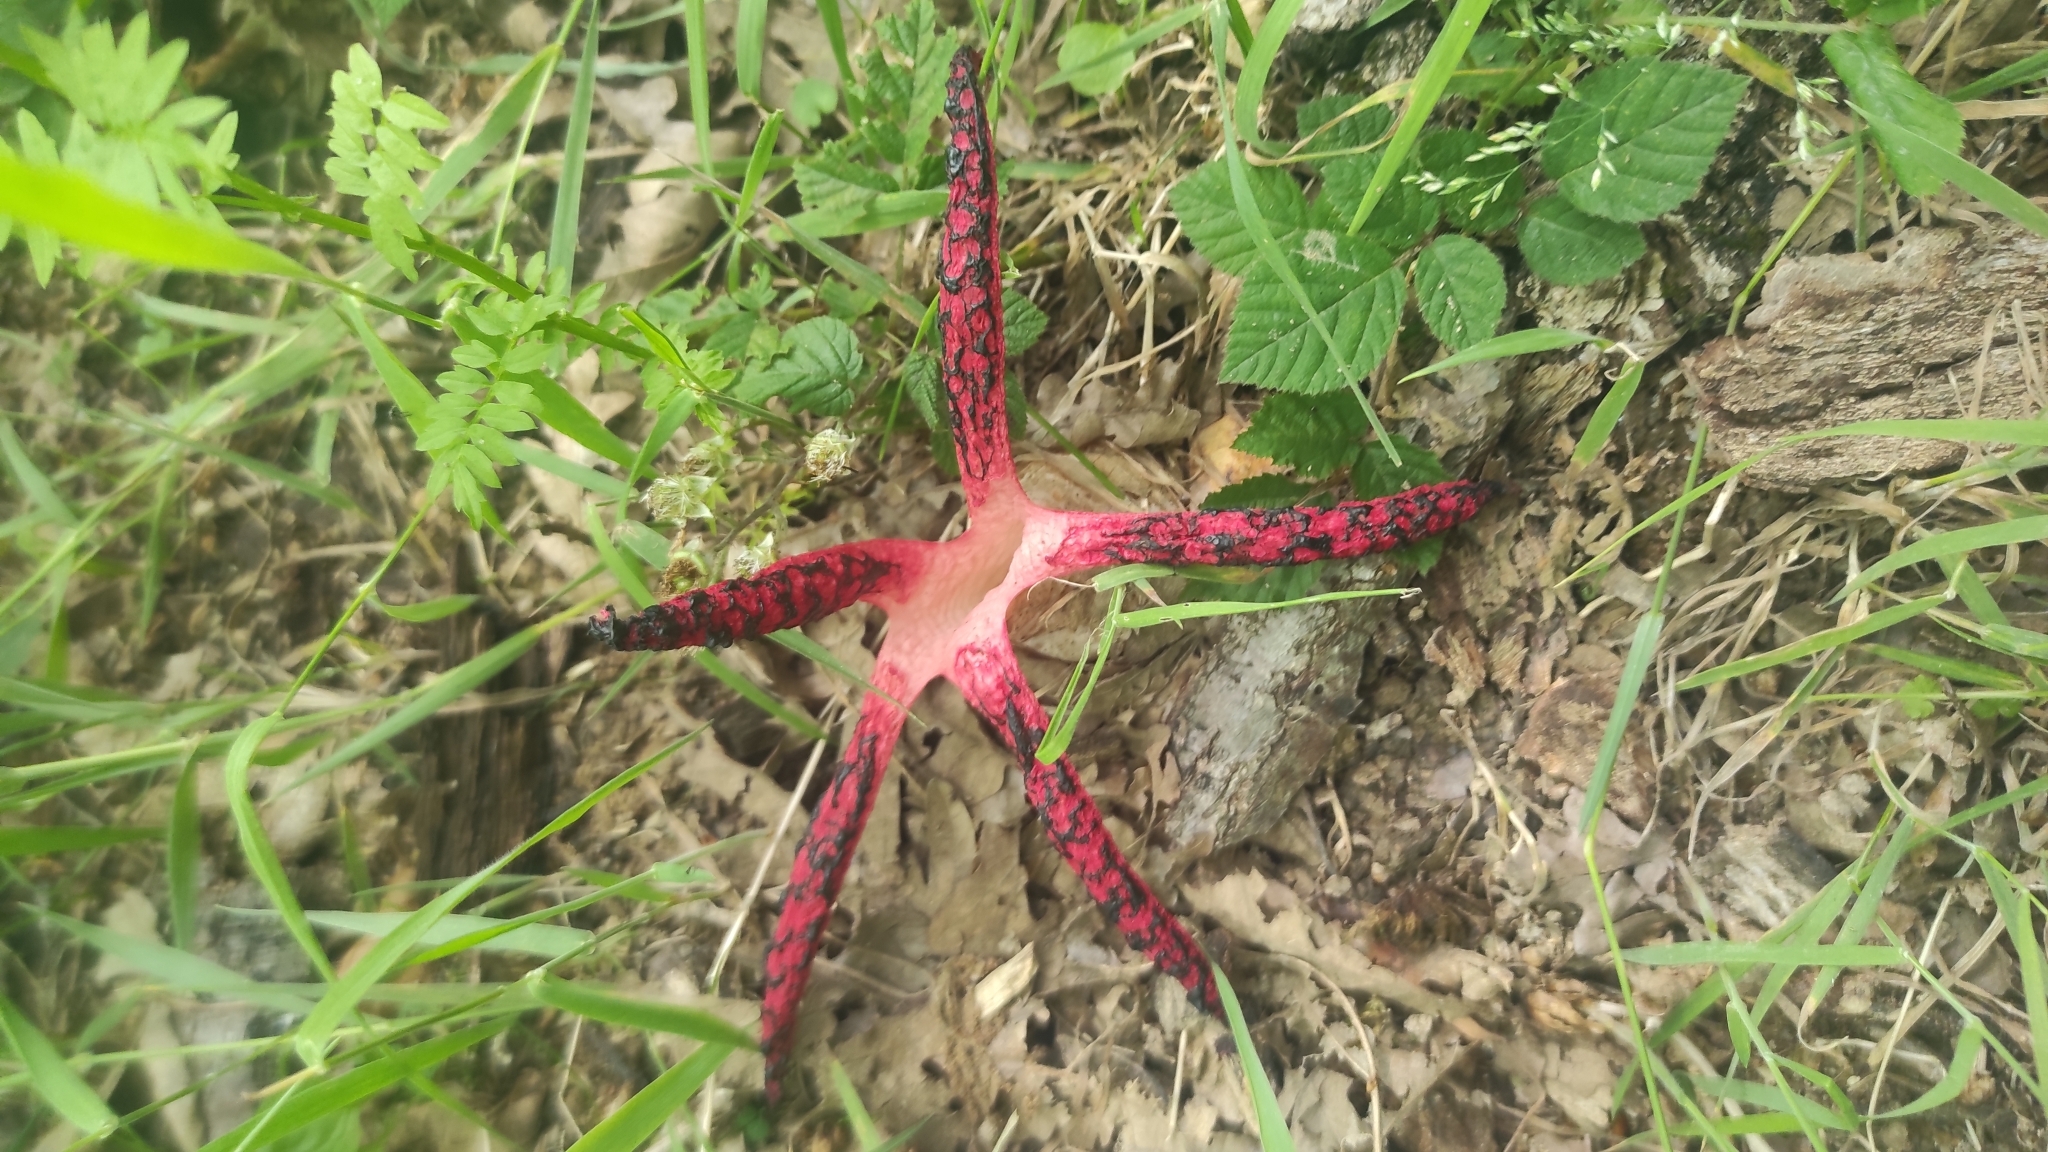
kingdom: Fungi
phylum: Basidiomycota
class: Agaricomycetes
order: Phallales
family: Phallaceae
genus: Clathrus
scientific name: Clathrus archeri
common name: Devil's fingers
